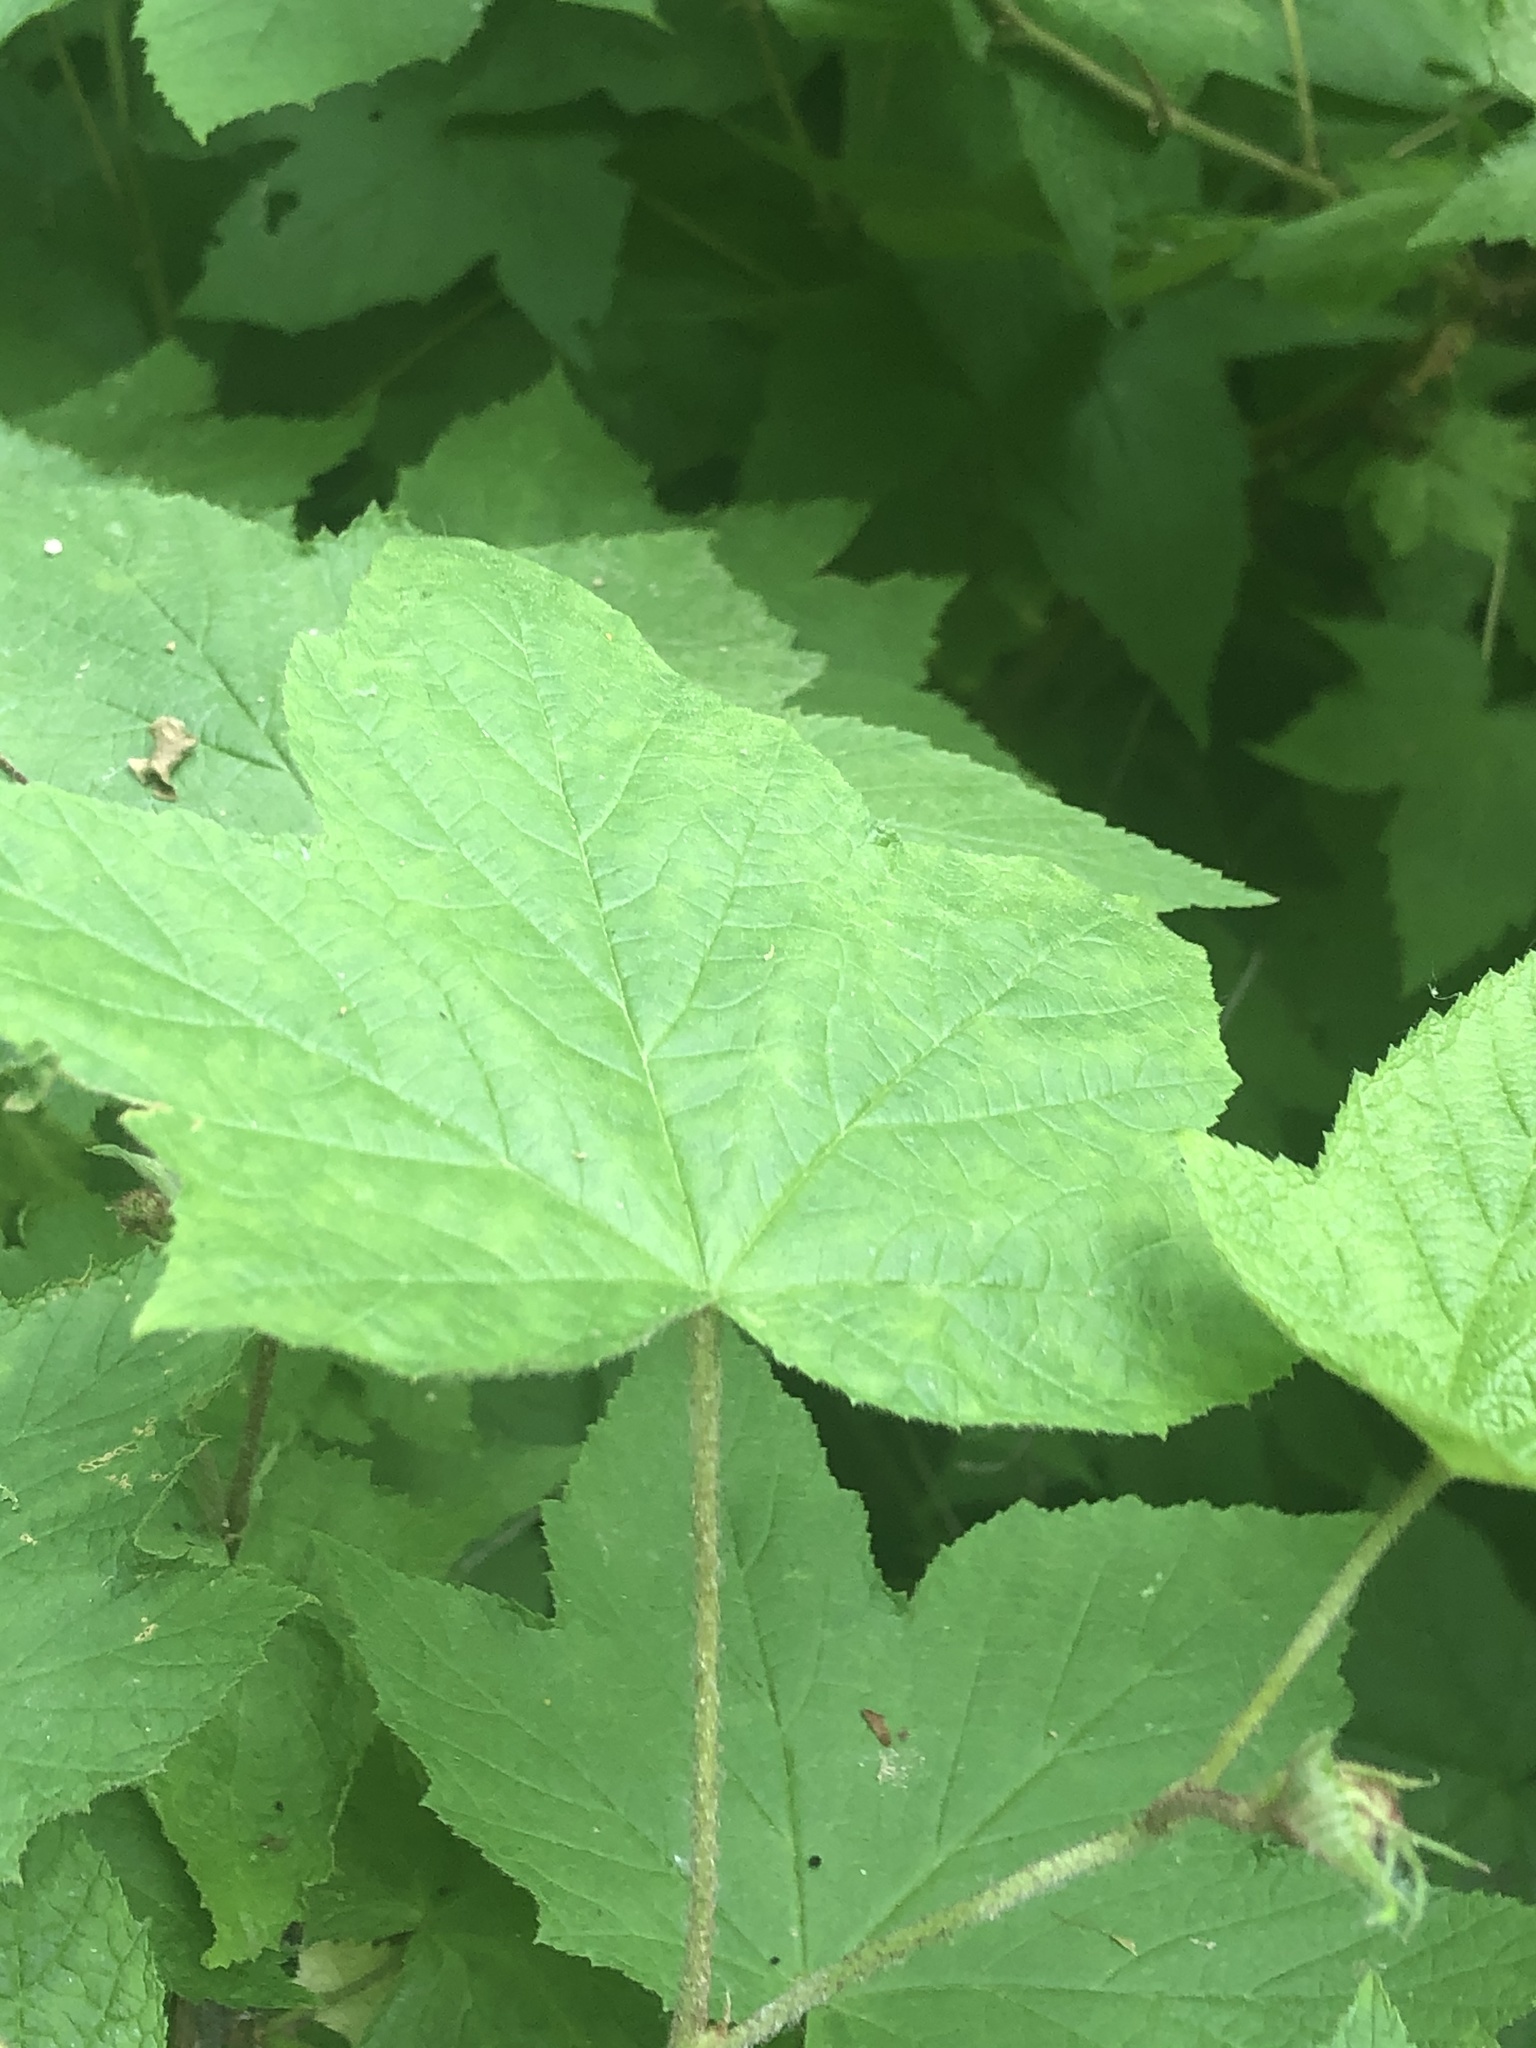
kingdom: Plantae
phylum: Tracheophyta
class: Magnoliopsida
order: Rosales
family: Rosaceae
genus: Rubus
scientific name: Rubus odoratus
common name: Purple-flowered raspberry
